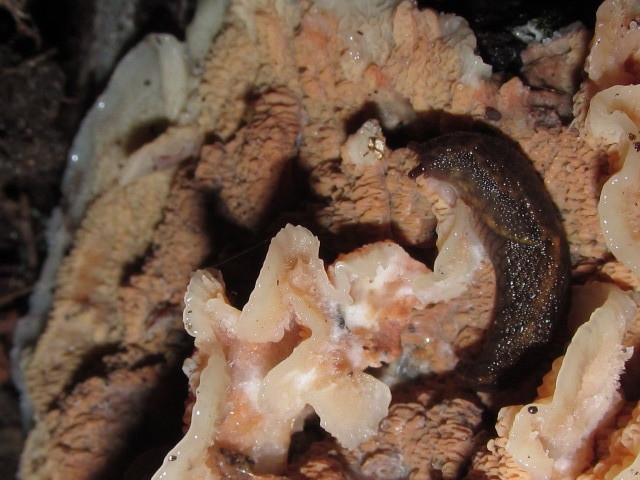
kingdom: Fungi
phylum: Basidiomycota
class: Agaricomycetes
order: Polyporales
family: Meruliaceae
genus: Phlebia
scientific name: Phlebia tremellosa
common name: Jelly rot
